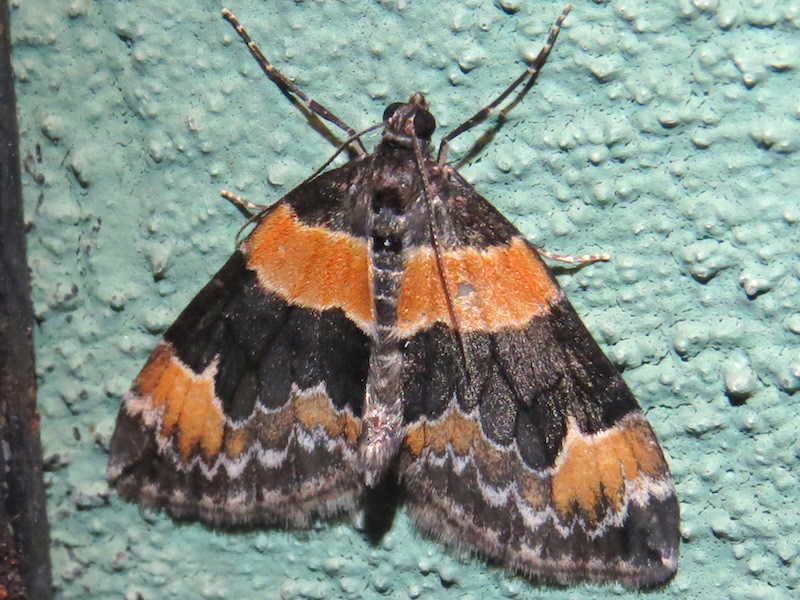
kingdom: Animalia
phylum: Arthropoda
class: Insecta
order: Lepidoptera
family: Geometridae
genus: Dysstroma
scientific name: Dysstroma hersiliata
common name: Orange-barred carpet
